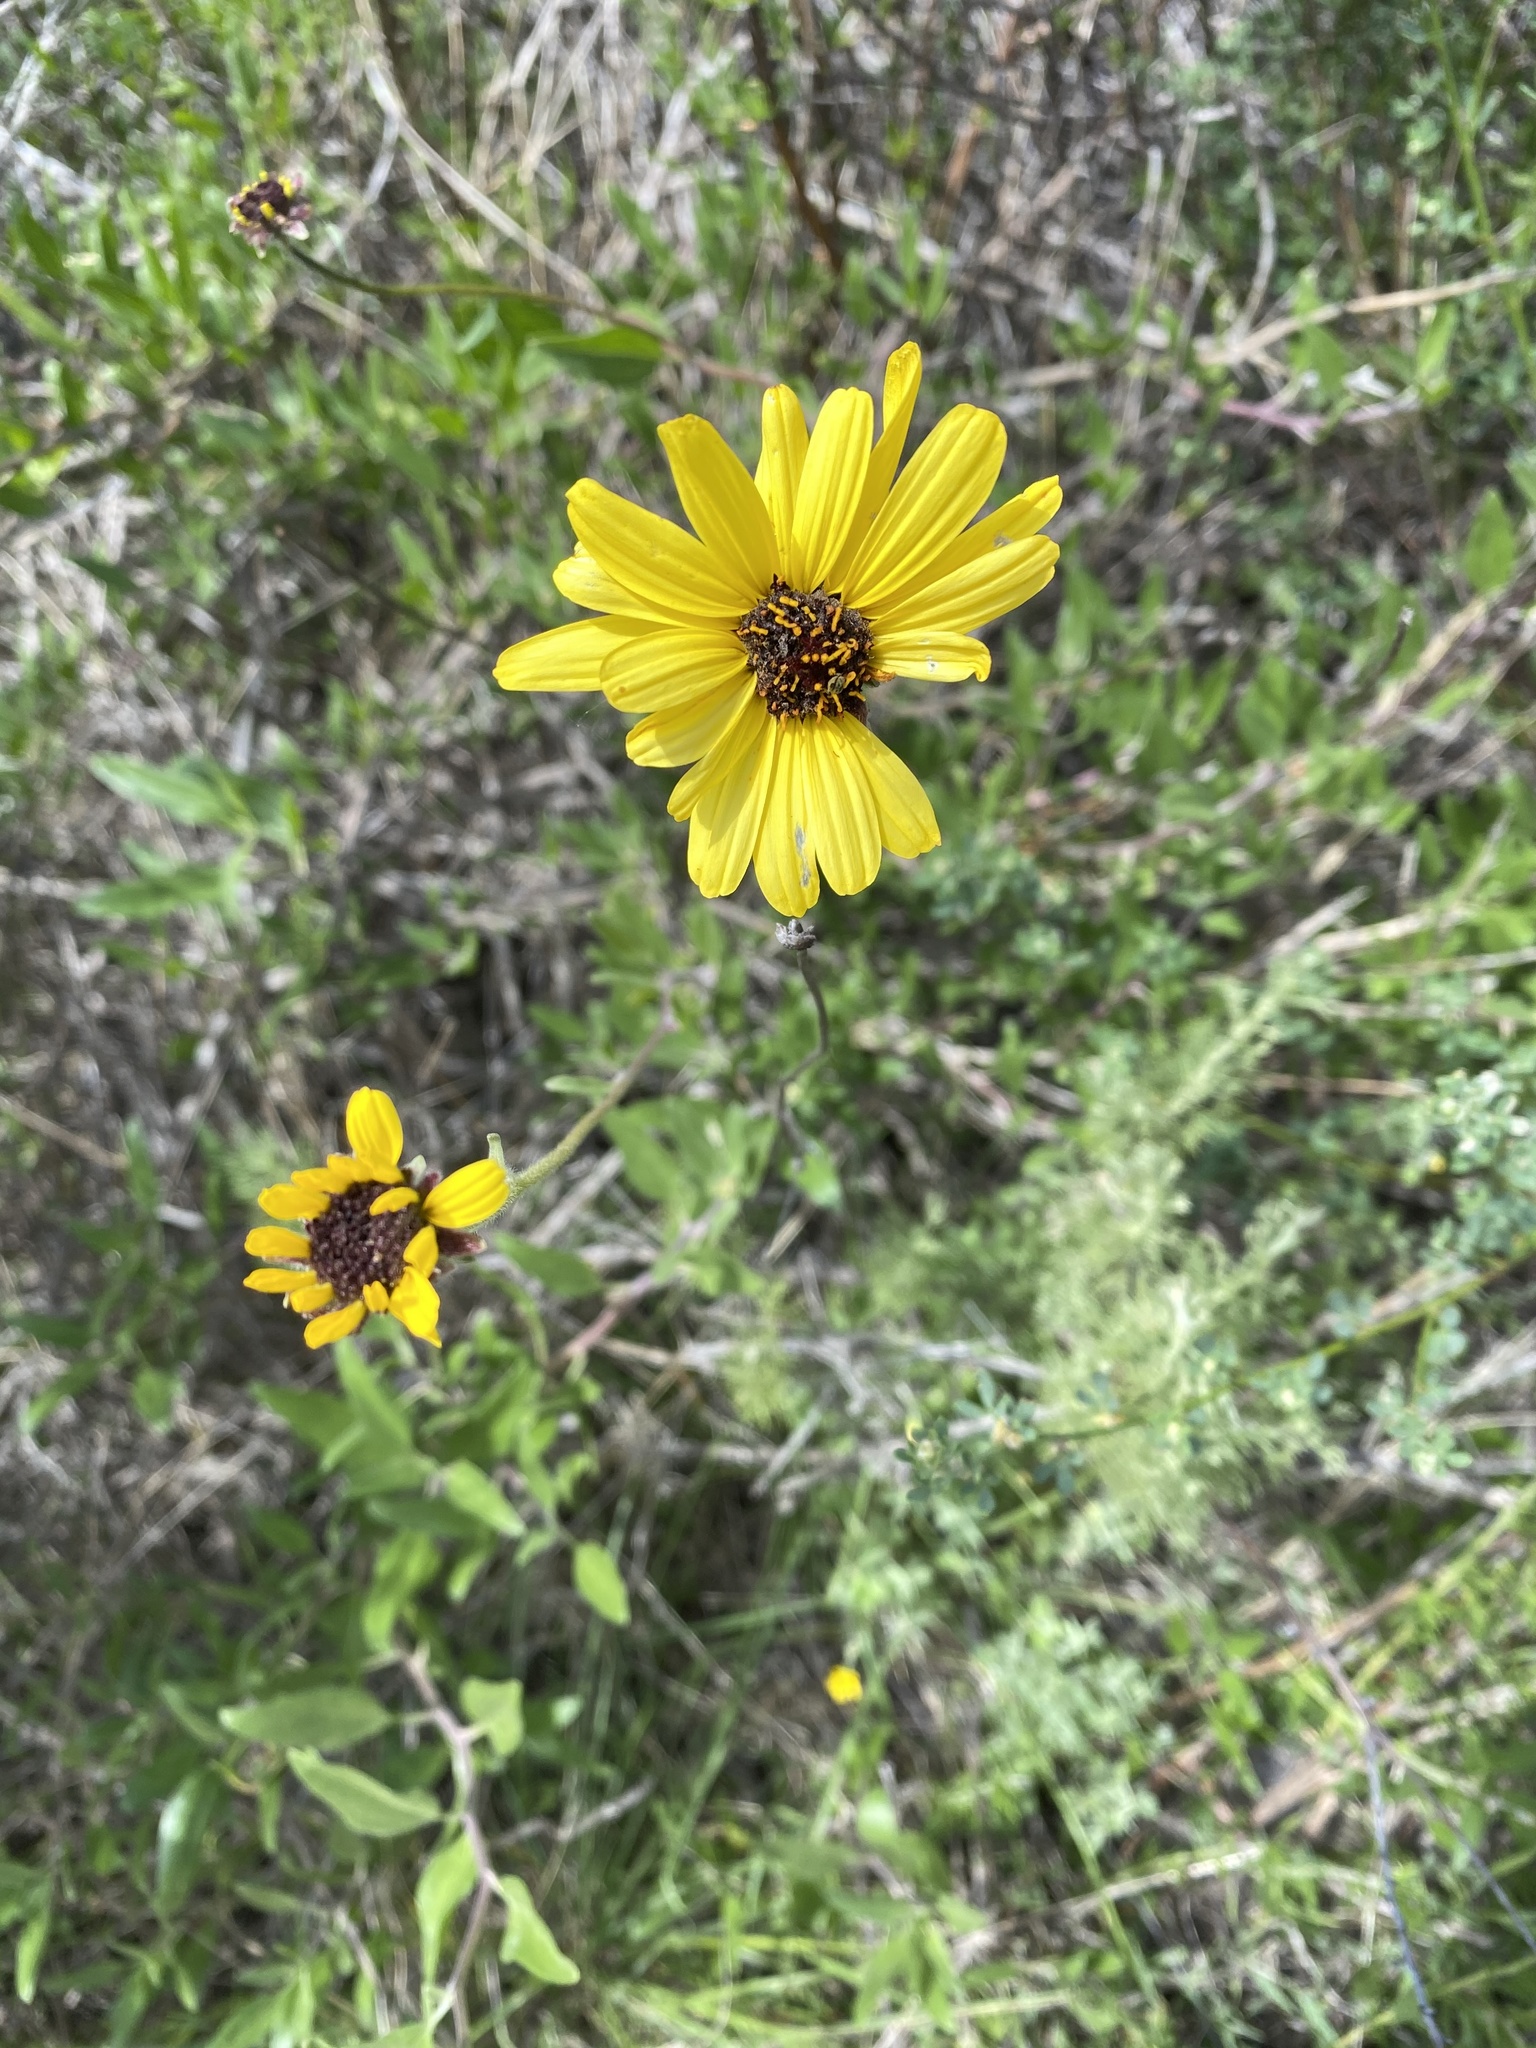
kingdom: Plantae
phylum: Tracheophyta
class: Magnoliopsida
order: Asterales
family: Asteraceae
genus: Encelia
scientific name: Encelia californica
